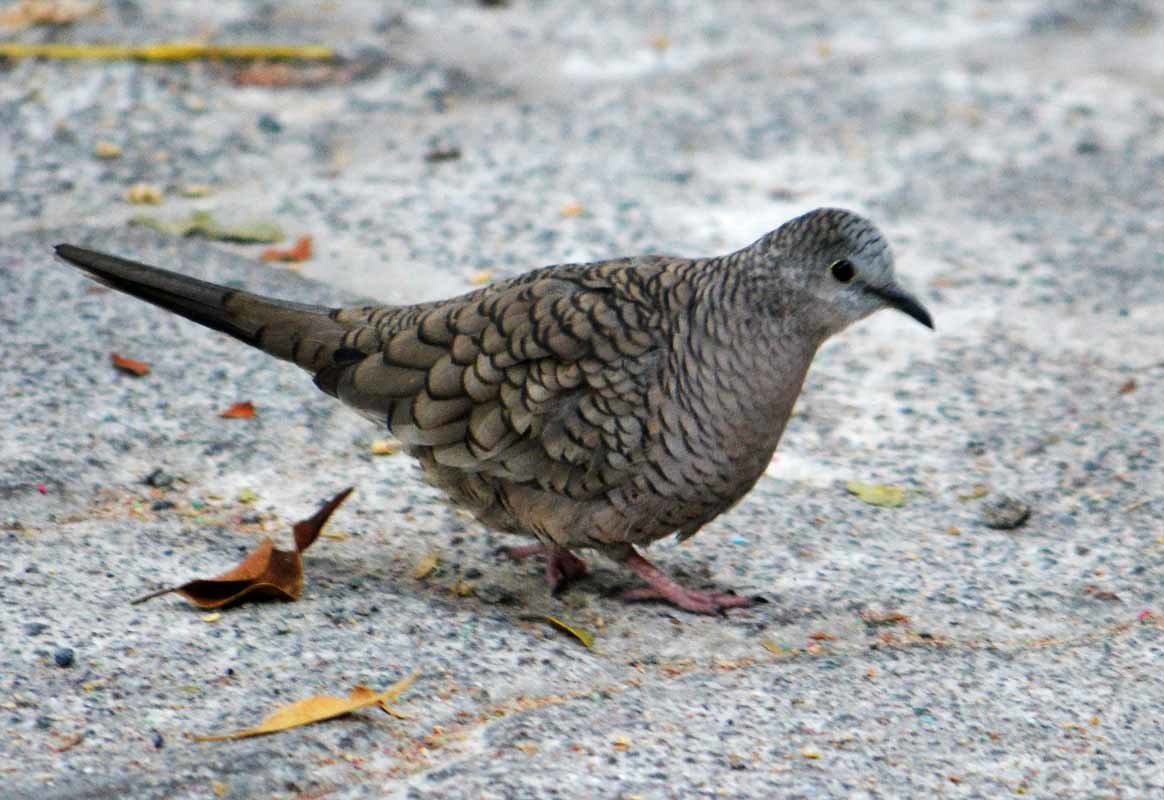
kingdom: Animalia
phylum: Chordata
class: Aves
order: Columbiformes
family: Columbidae
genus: Columbina
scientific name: Columbina inca
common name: Inca dove
